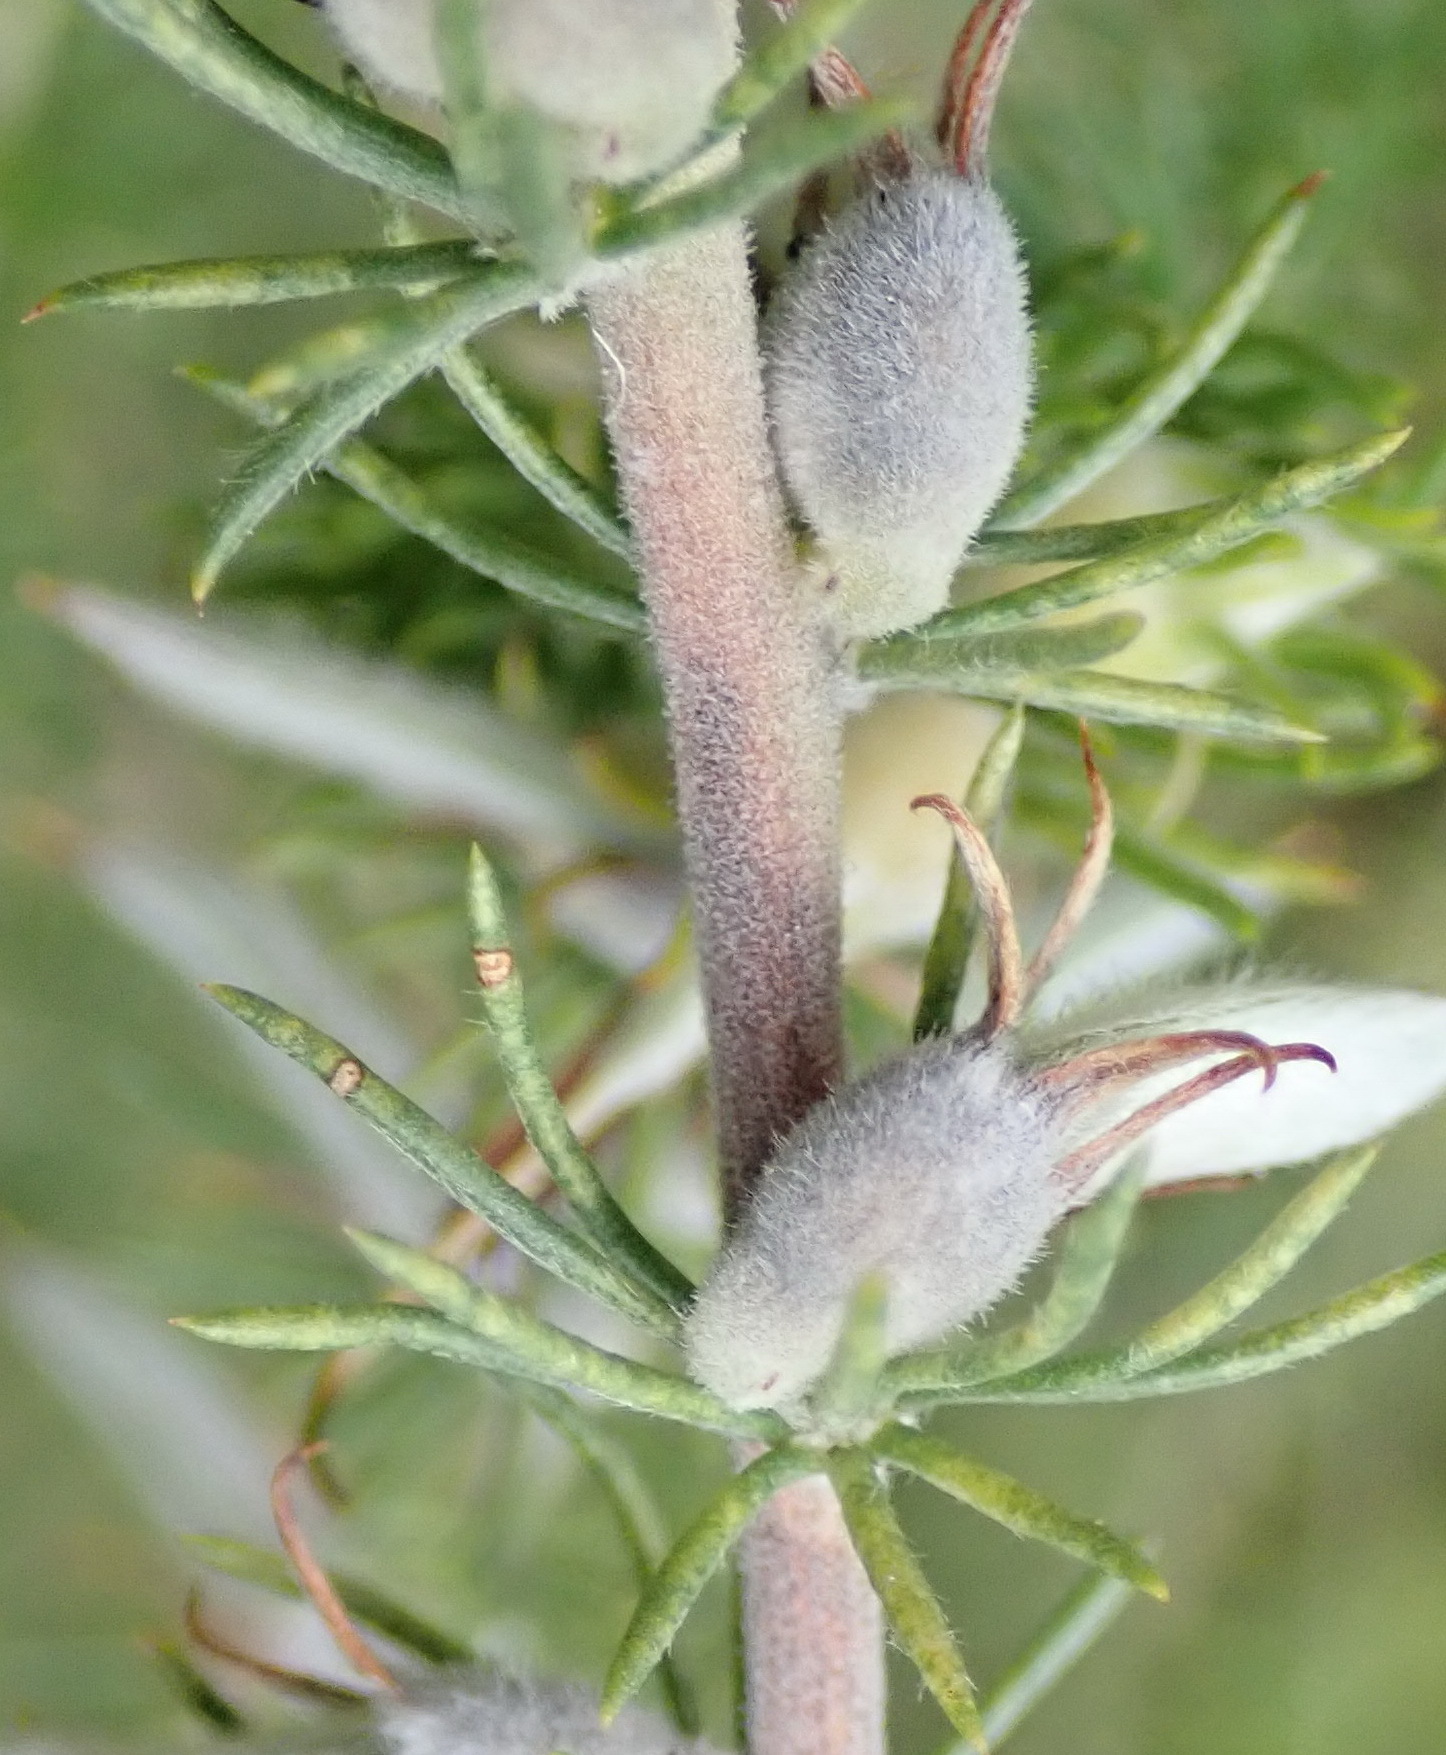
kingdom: Plantae
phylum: Tracheophyta
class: Magnoliopsida
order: Fabales
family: Fabaceae
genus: Aspalathus
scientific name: Aspalathus kougaensis
